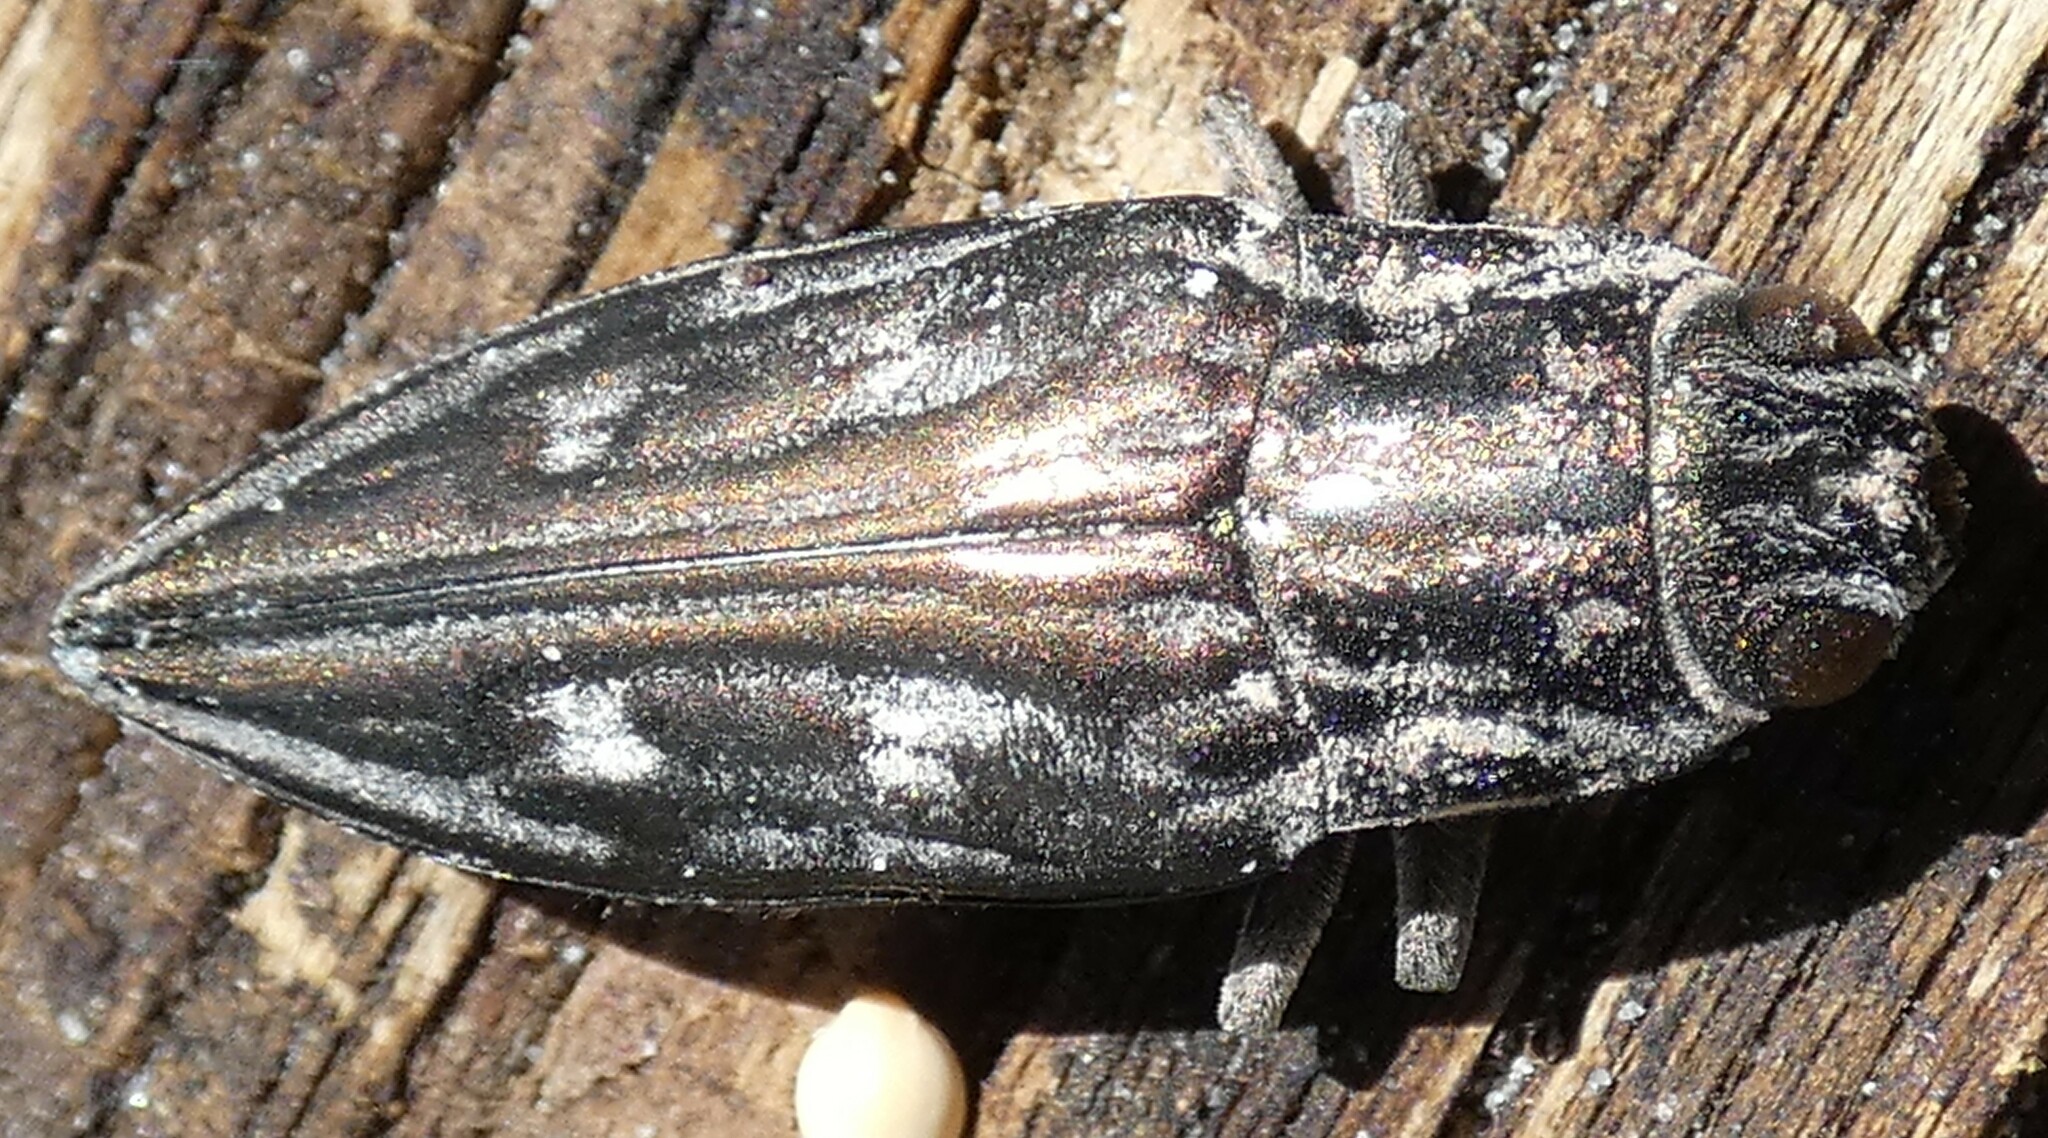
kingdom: Animalia
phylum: Arthropoda
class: Insecta
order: Coleoptera
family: Buprestidae
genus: Chalcophora
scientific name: Chalcophora georgiana
